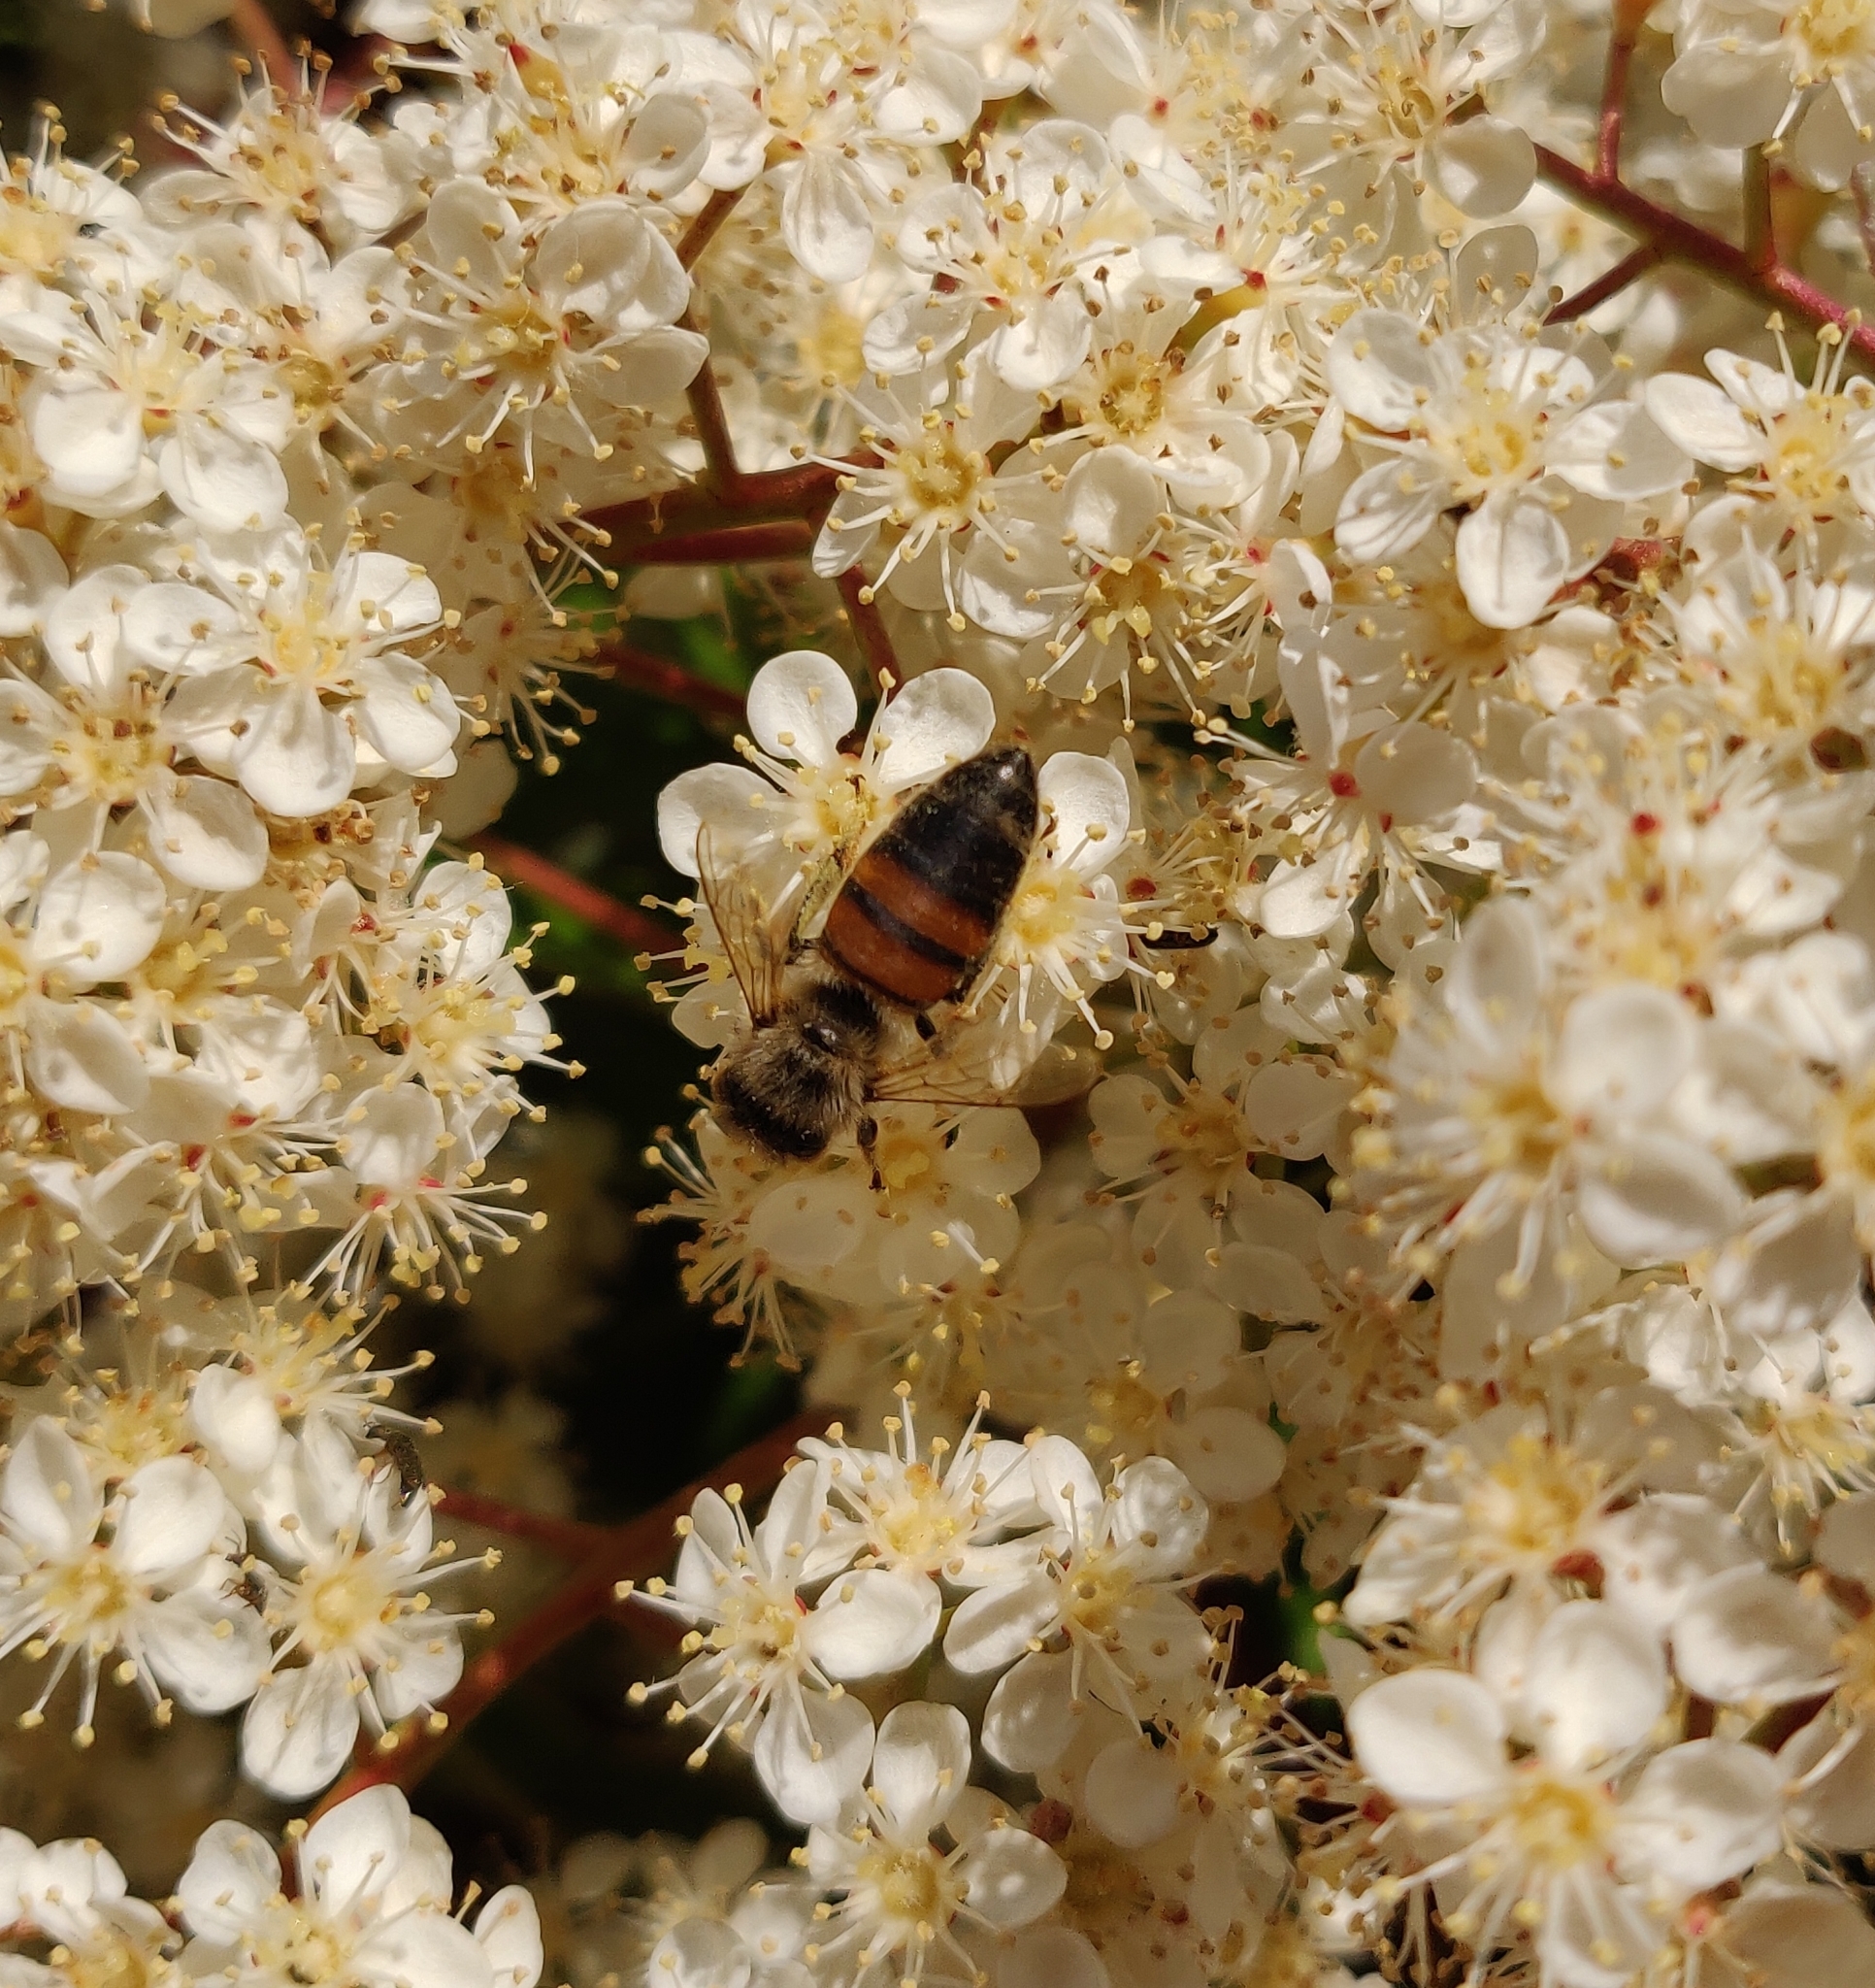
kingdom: Animalia
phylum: Arthropoda
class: Insecta
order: Hymenoptera
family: Apidae
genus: Apis
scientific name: Apis mellifera
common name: Honey bee
